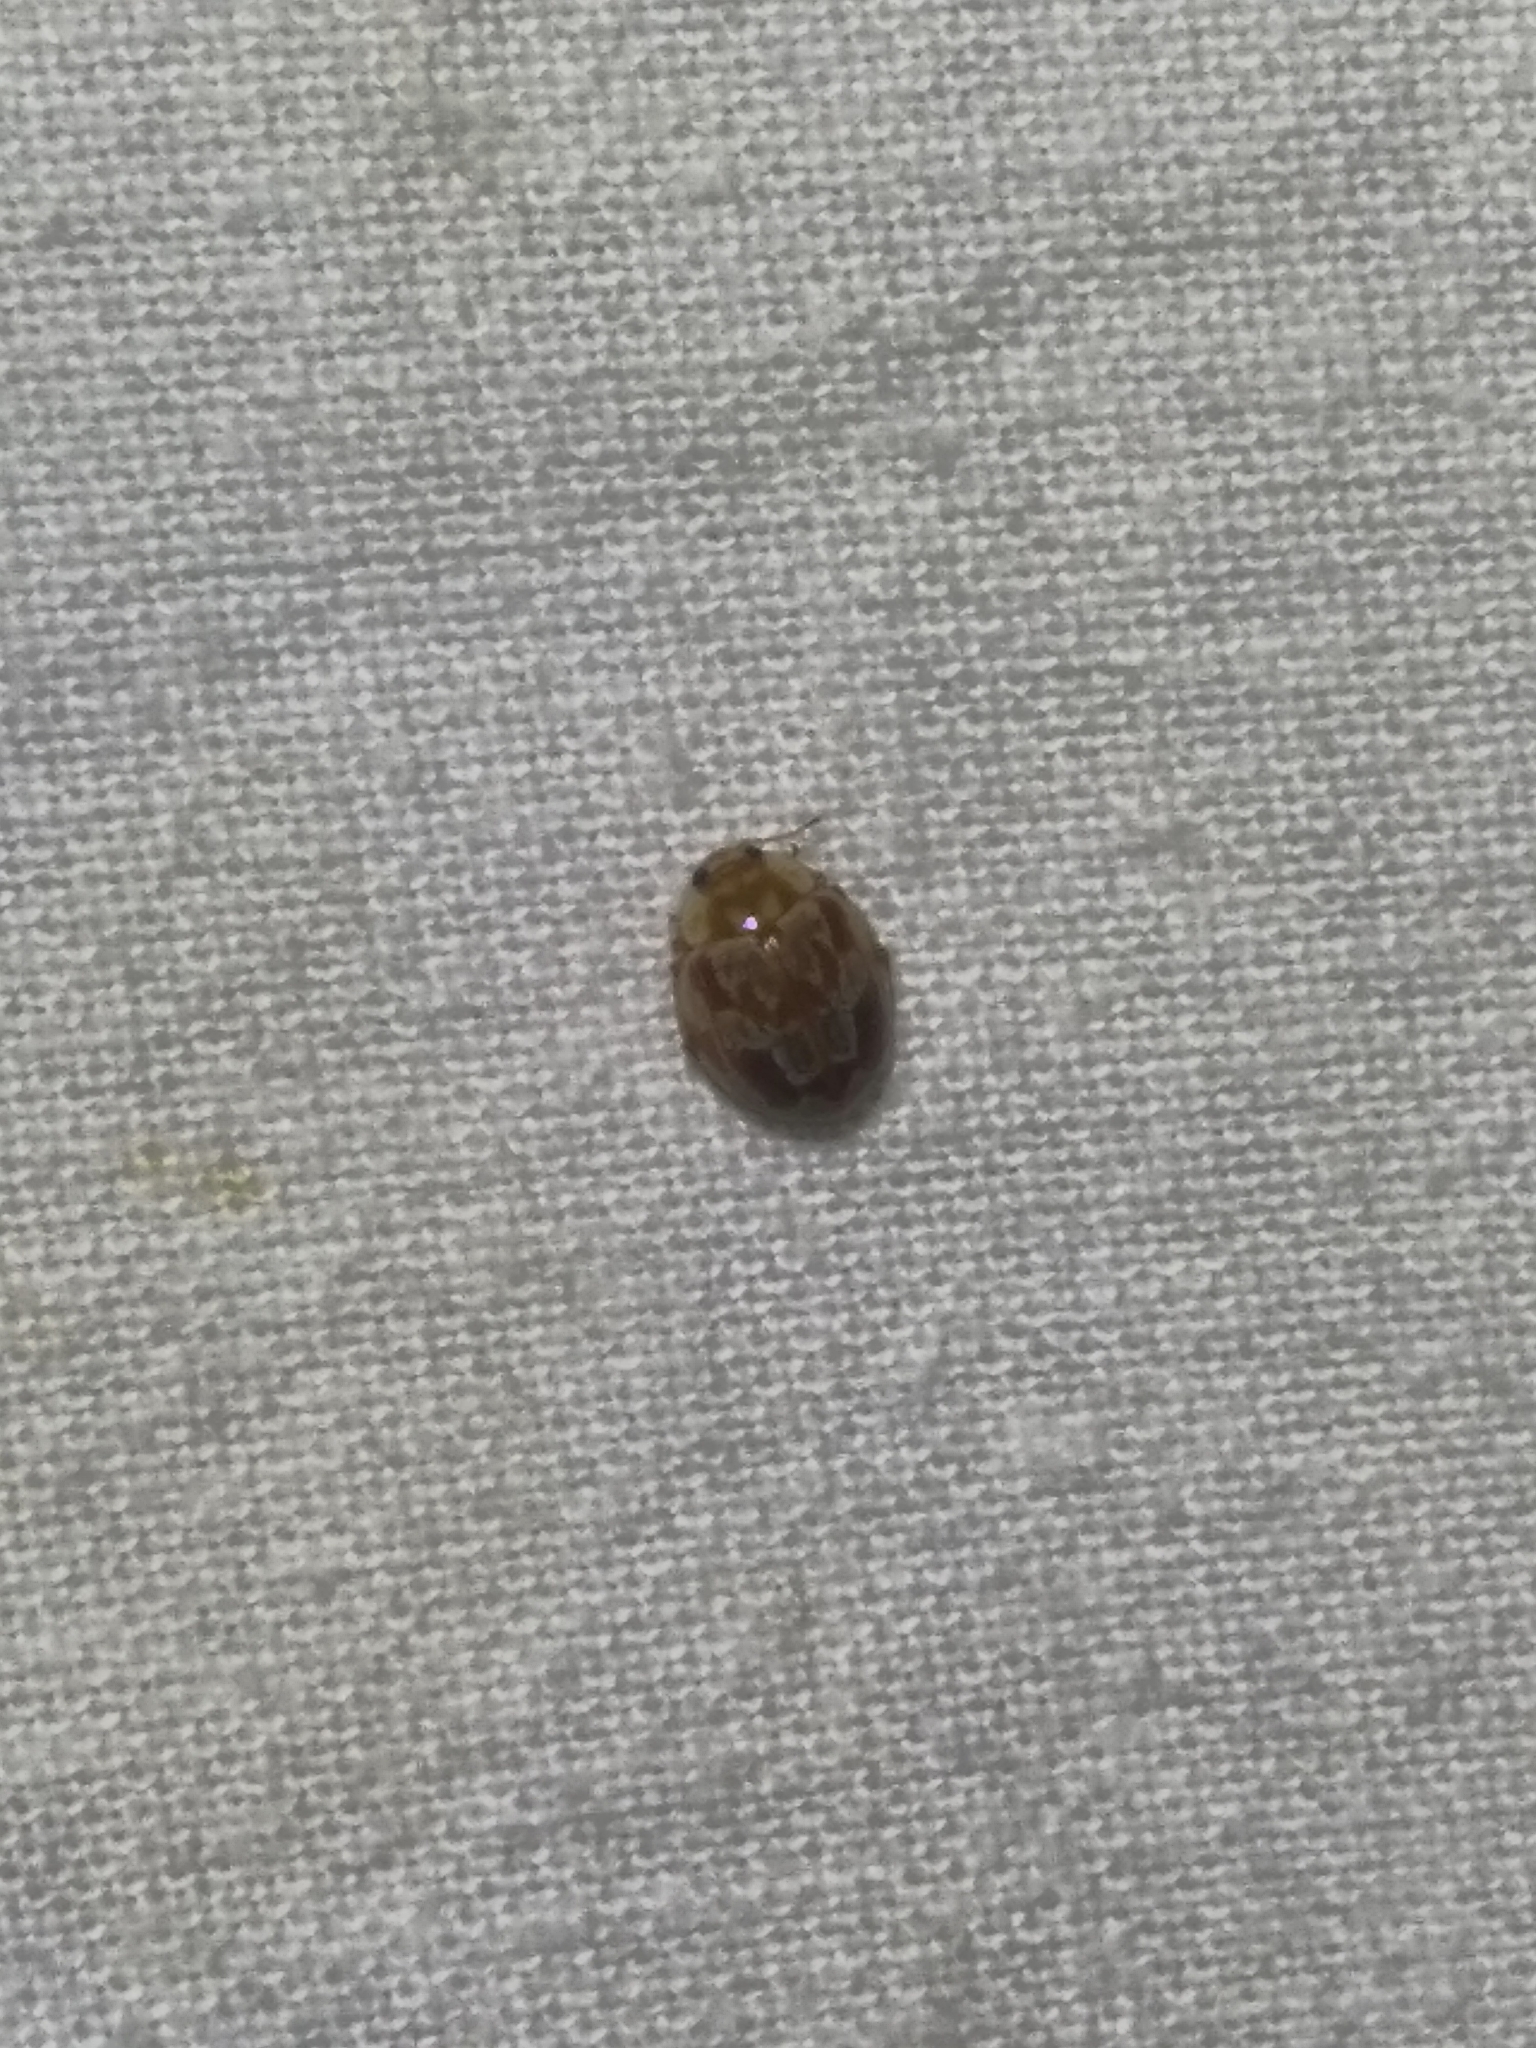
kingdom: Animalia
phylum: Arthropoda
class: Insecta
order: Coleoptera
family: Coccinellidae
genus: Myrrha
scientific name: Myrrha octodecimguttata
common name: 18-spot ladybird
